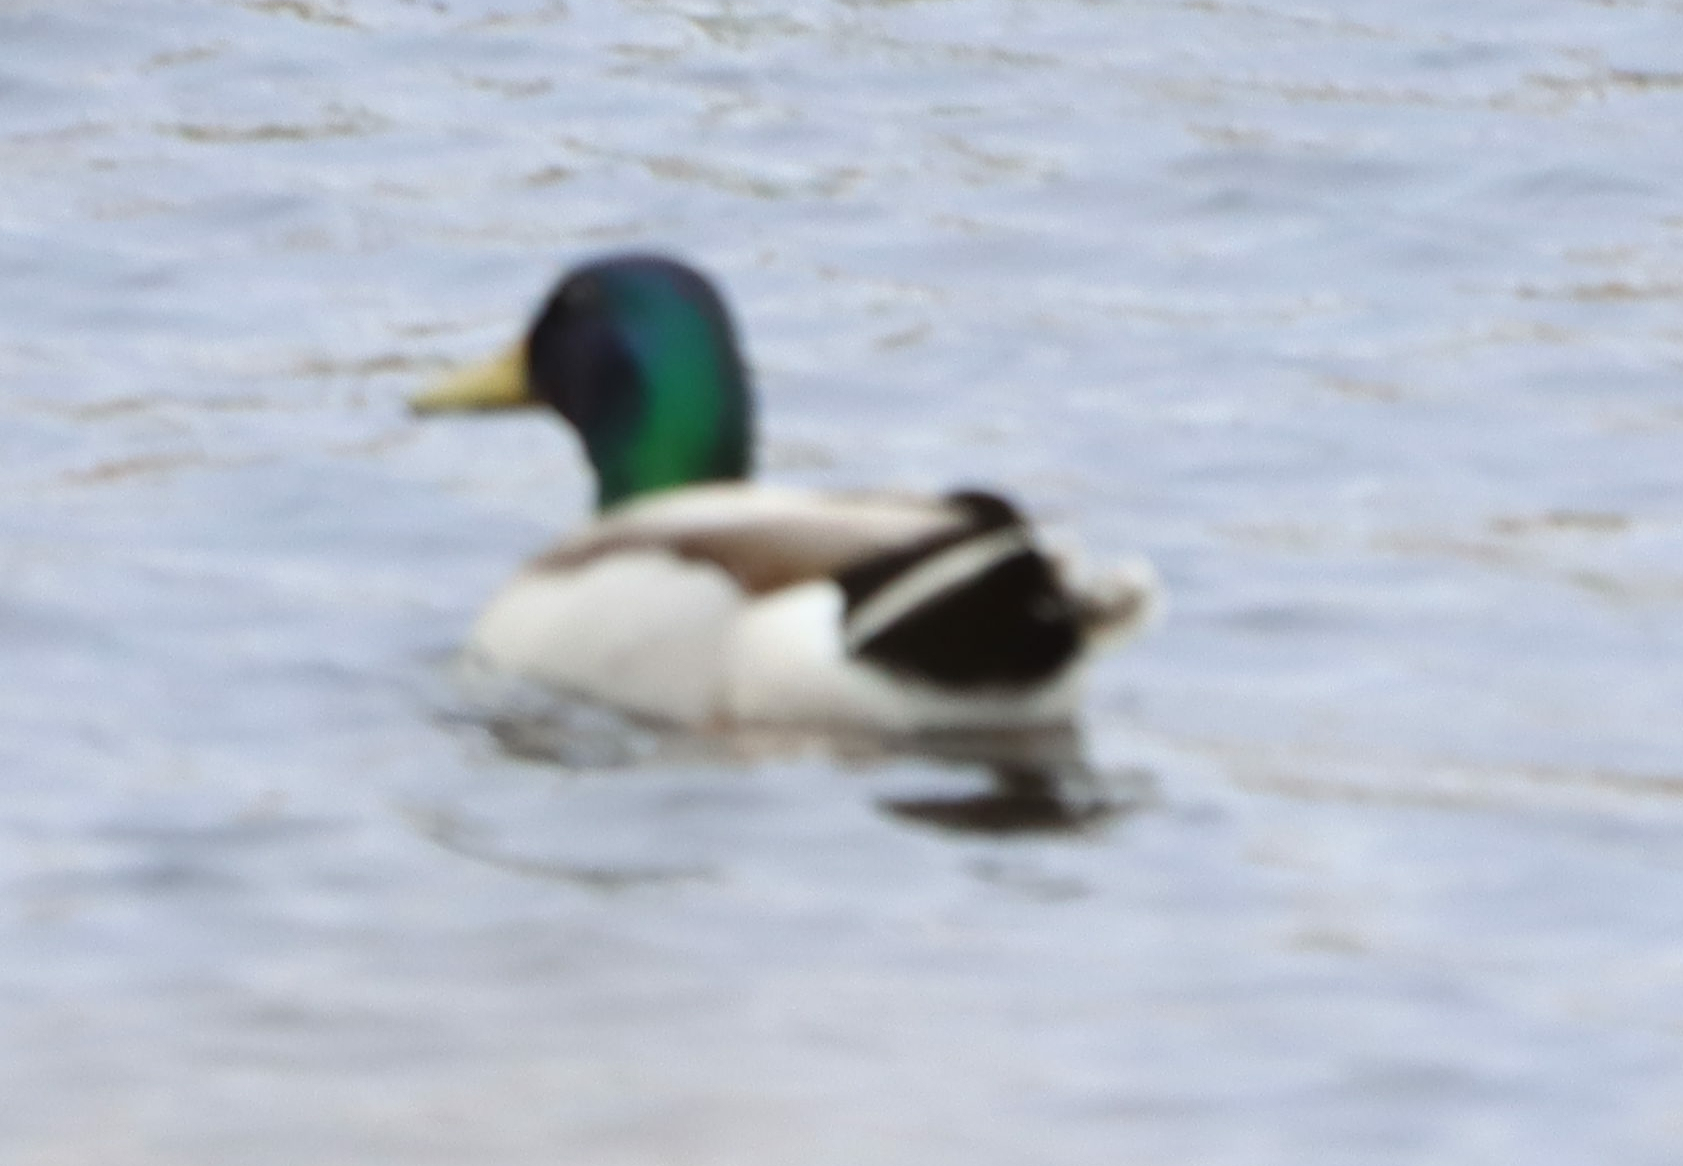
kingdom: Animalia
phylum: Chordata
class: Aves
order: Anseriformes
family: Anatidae
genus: Anas
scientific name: Anas platyrhynchos
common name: Mallard
